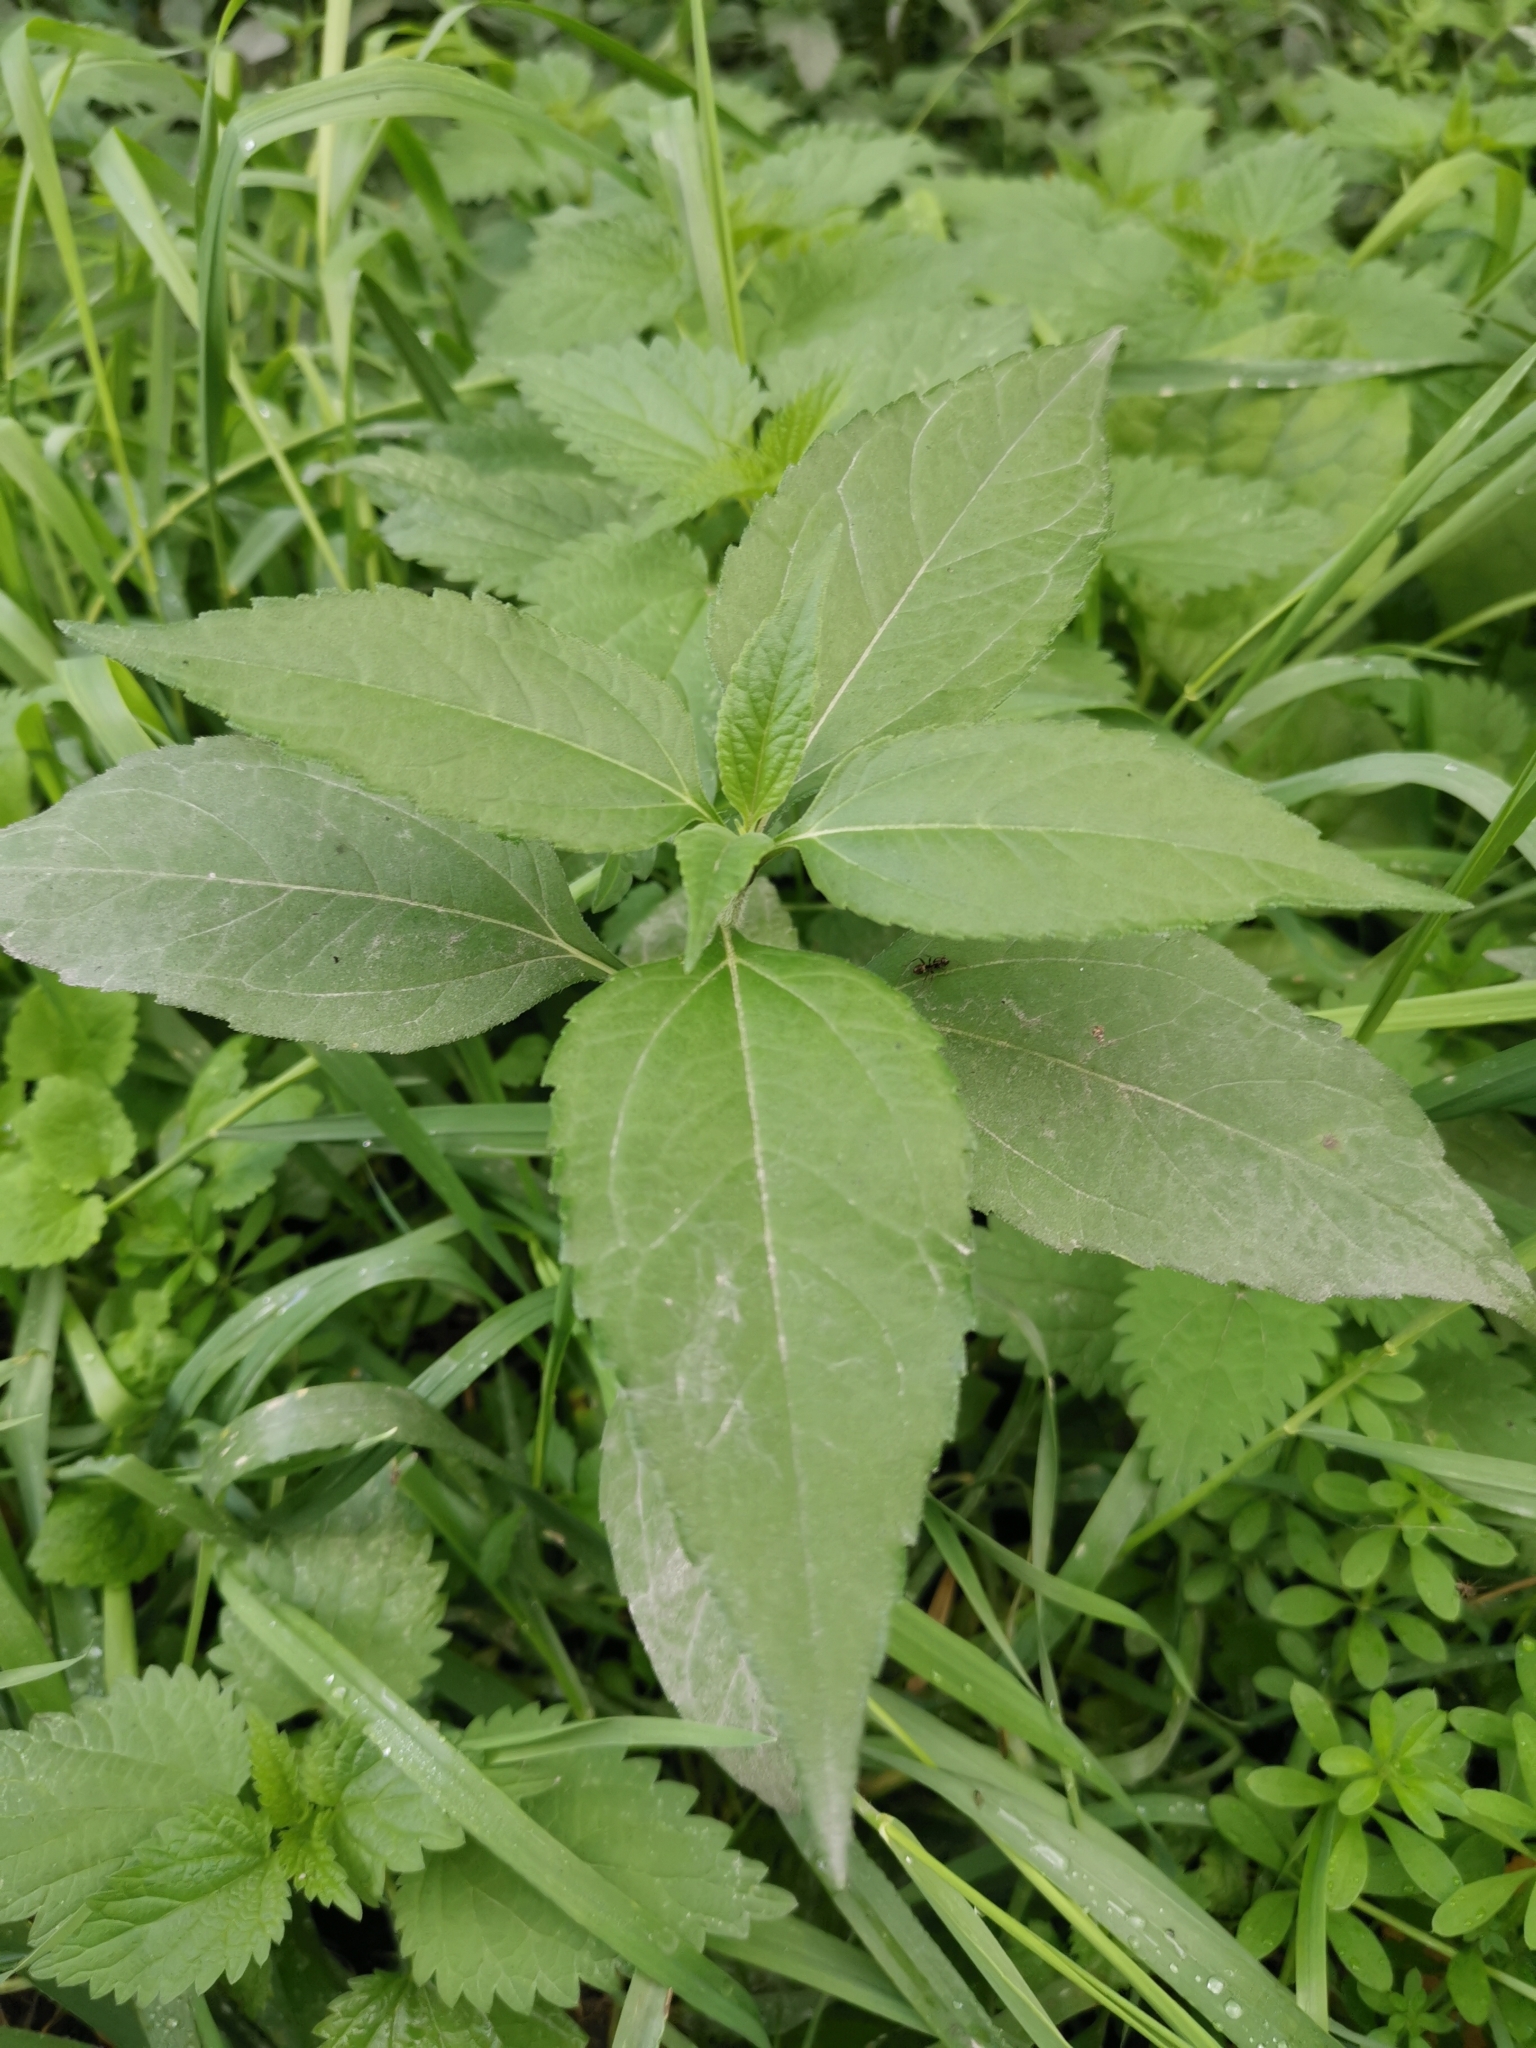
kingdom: Plantae
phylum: Tracheophyta
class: Magnoliopsida
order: Asterales
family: Asteraceae
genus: Helianthus
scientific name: Helianthus tuberosus
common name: Jerusalem artichoke
